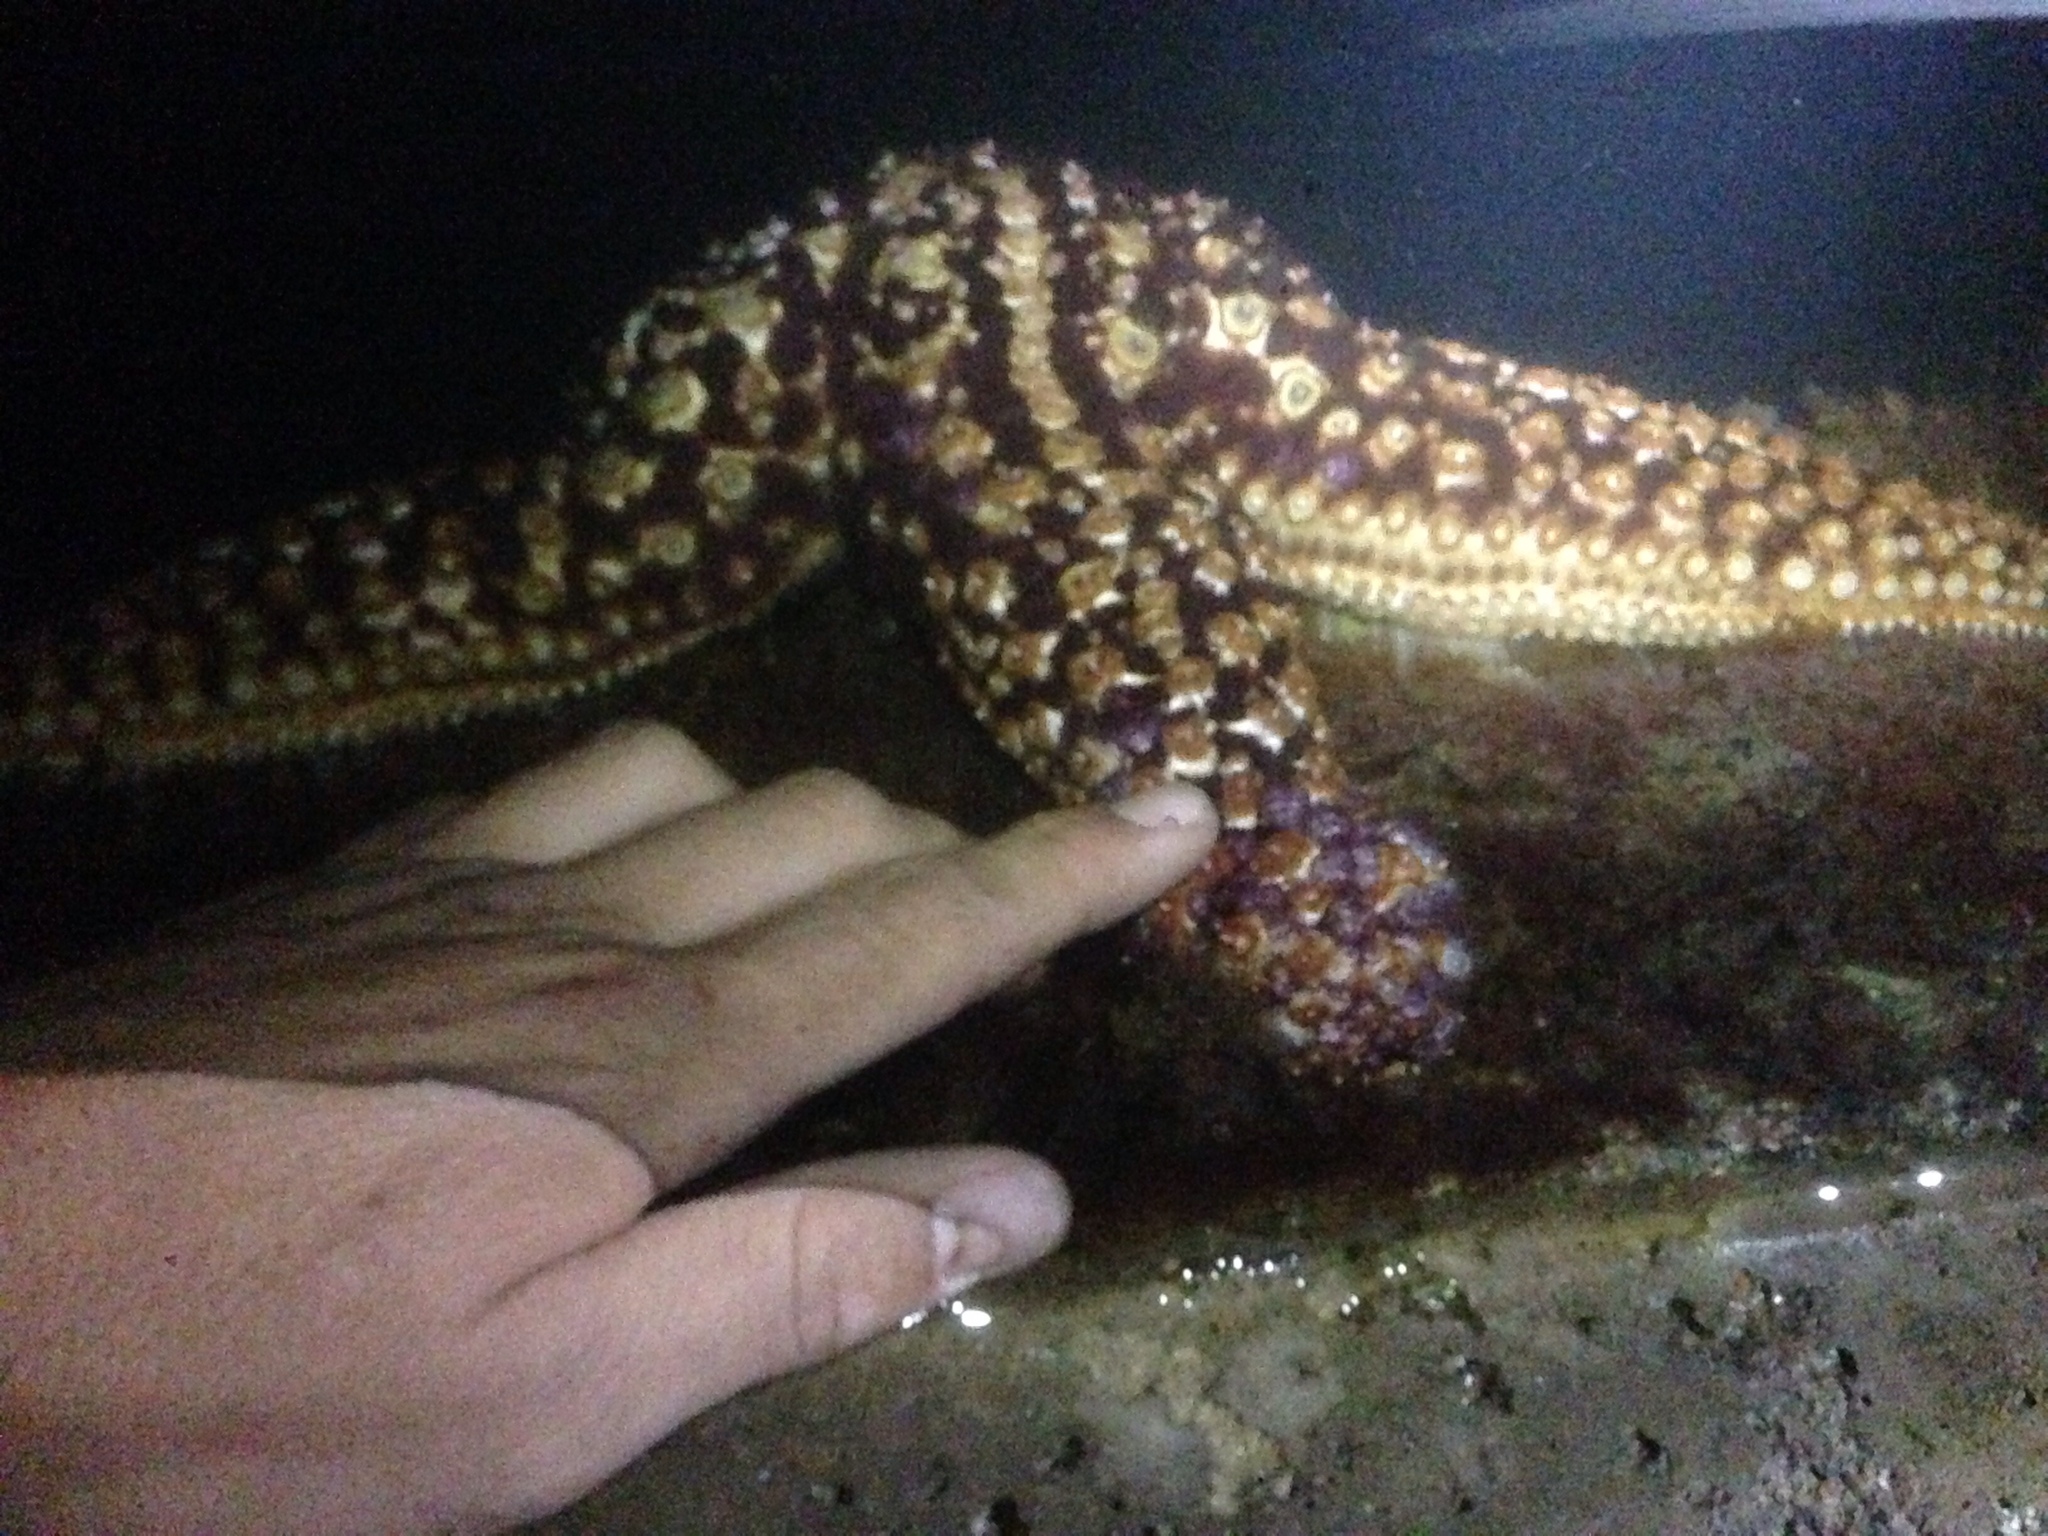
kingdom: Animalia
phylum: Echinodermata
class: Asteroidea
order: Forcipulatida
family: Asteriidae
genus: Pisaster
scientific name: Pisaster giganteus
